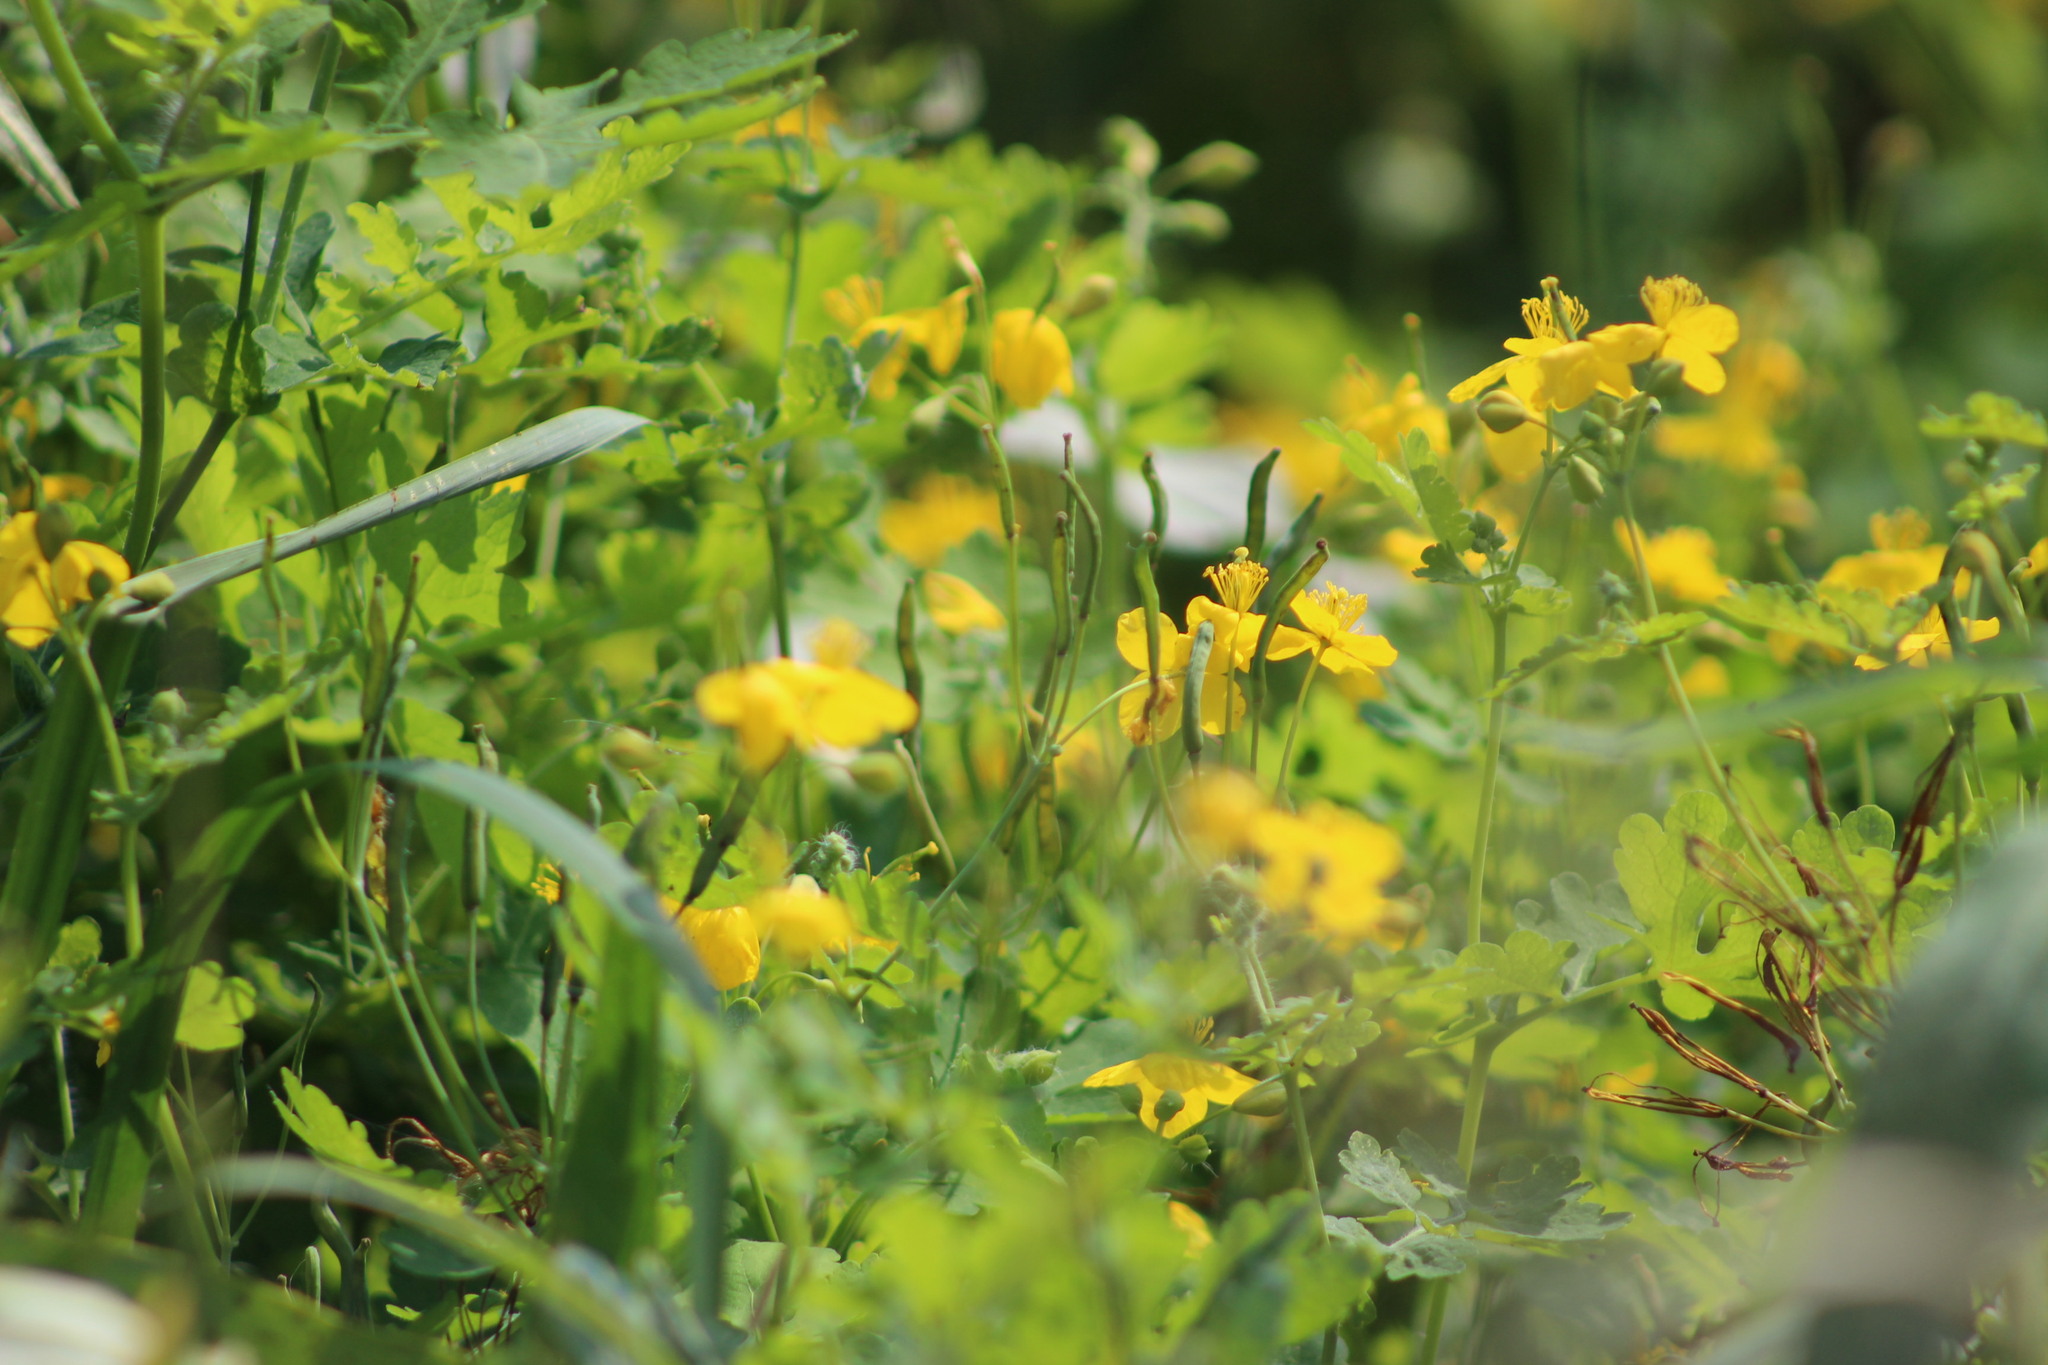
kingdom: Plantae
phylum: Tracheophyta
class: Magnoliopsida
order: Ranunculales
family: Papaveraceae
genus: Chelidonium
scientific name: Chelidonium majus
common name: Greater celandine
